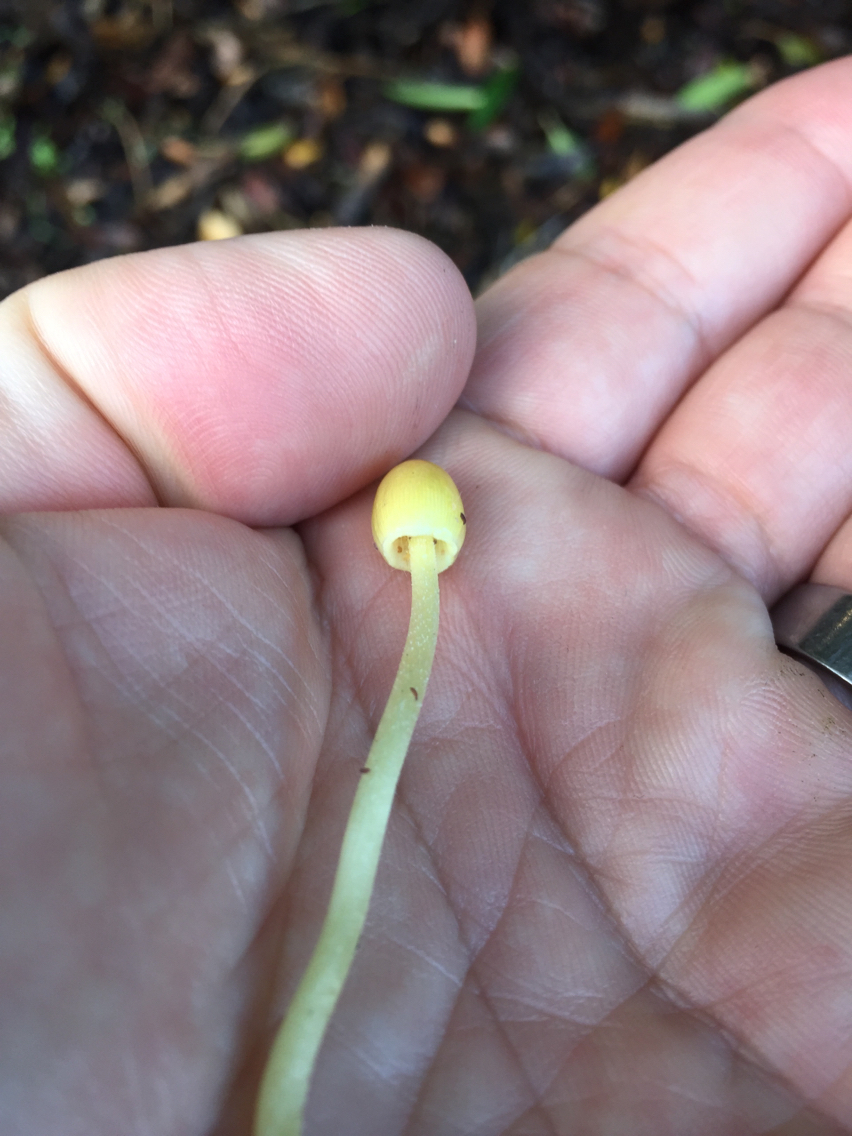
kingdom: Fungi
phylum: Basidiomycota
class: Agaricomycetes
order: Agaricales
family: Bolbitiaceae
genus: Bolbitius
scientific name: Bolbitius titubans
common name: Yellow fieldcap
